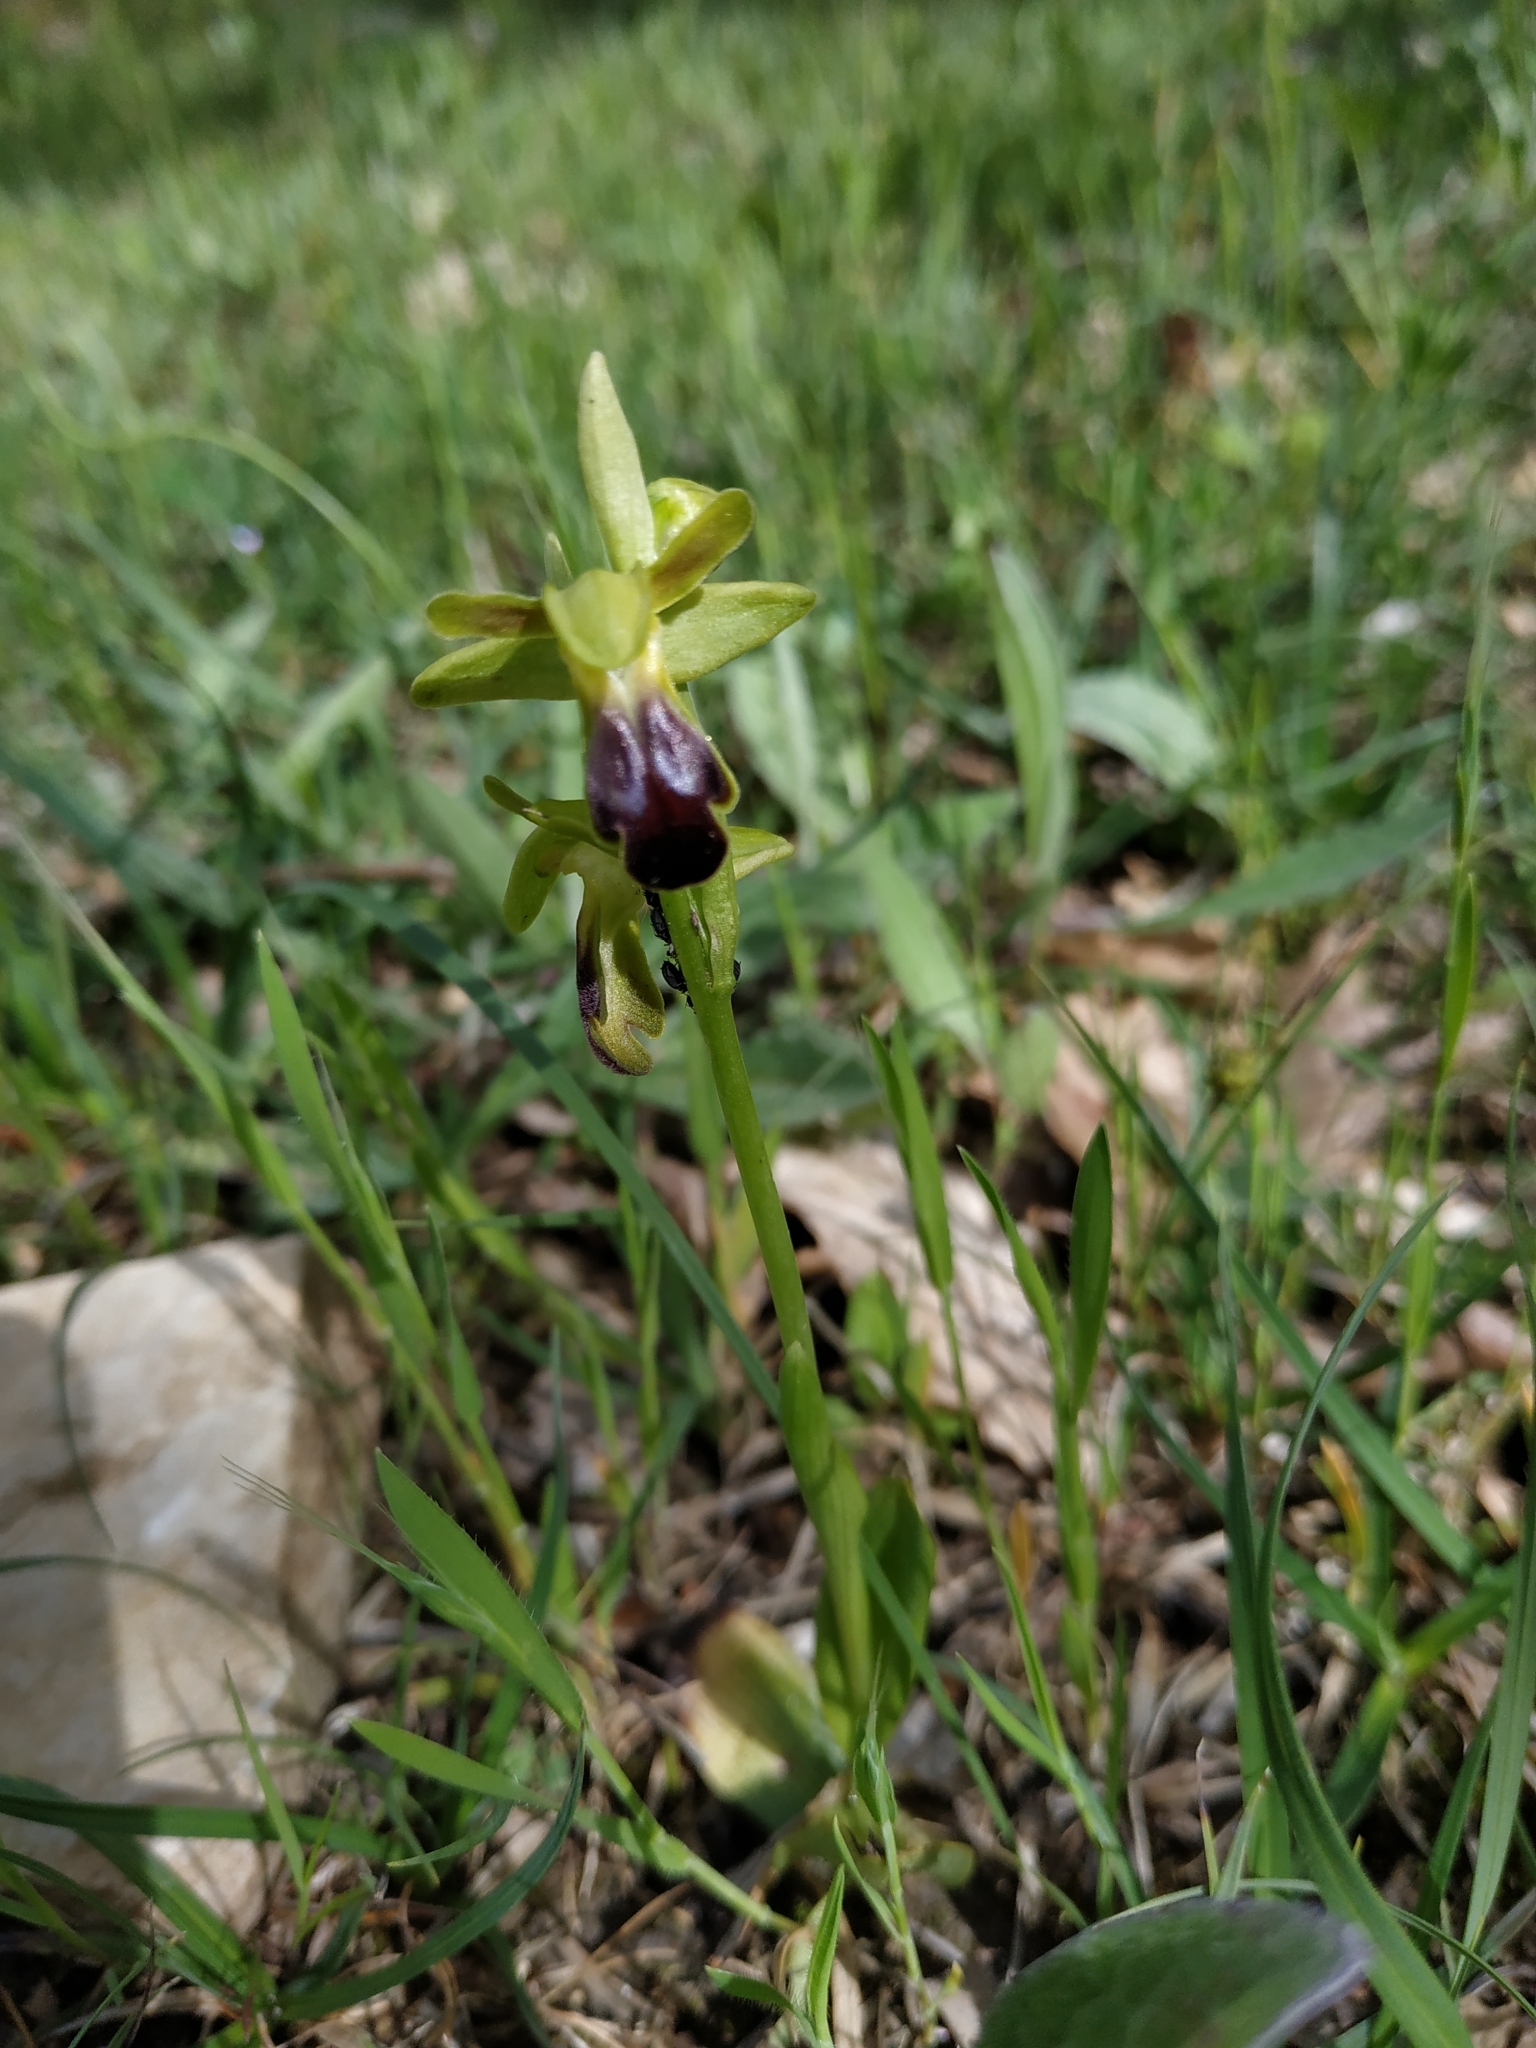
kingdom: Plantae
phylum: Tracheophyta
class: Liliopsida
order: Asparagales
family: Orchidaceae
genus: Ophrys
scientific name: Ophrys fusca
